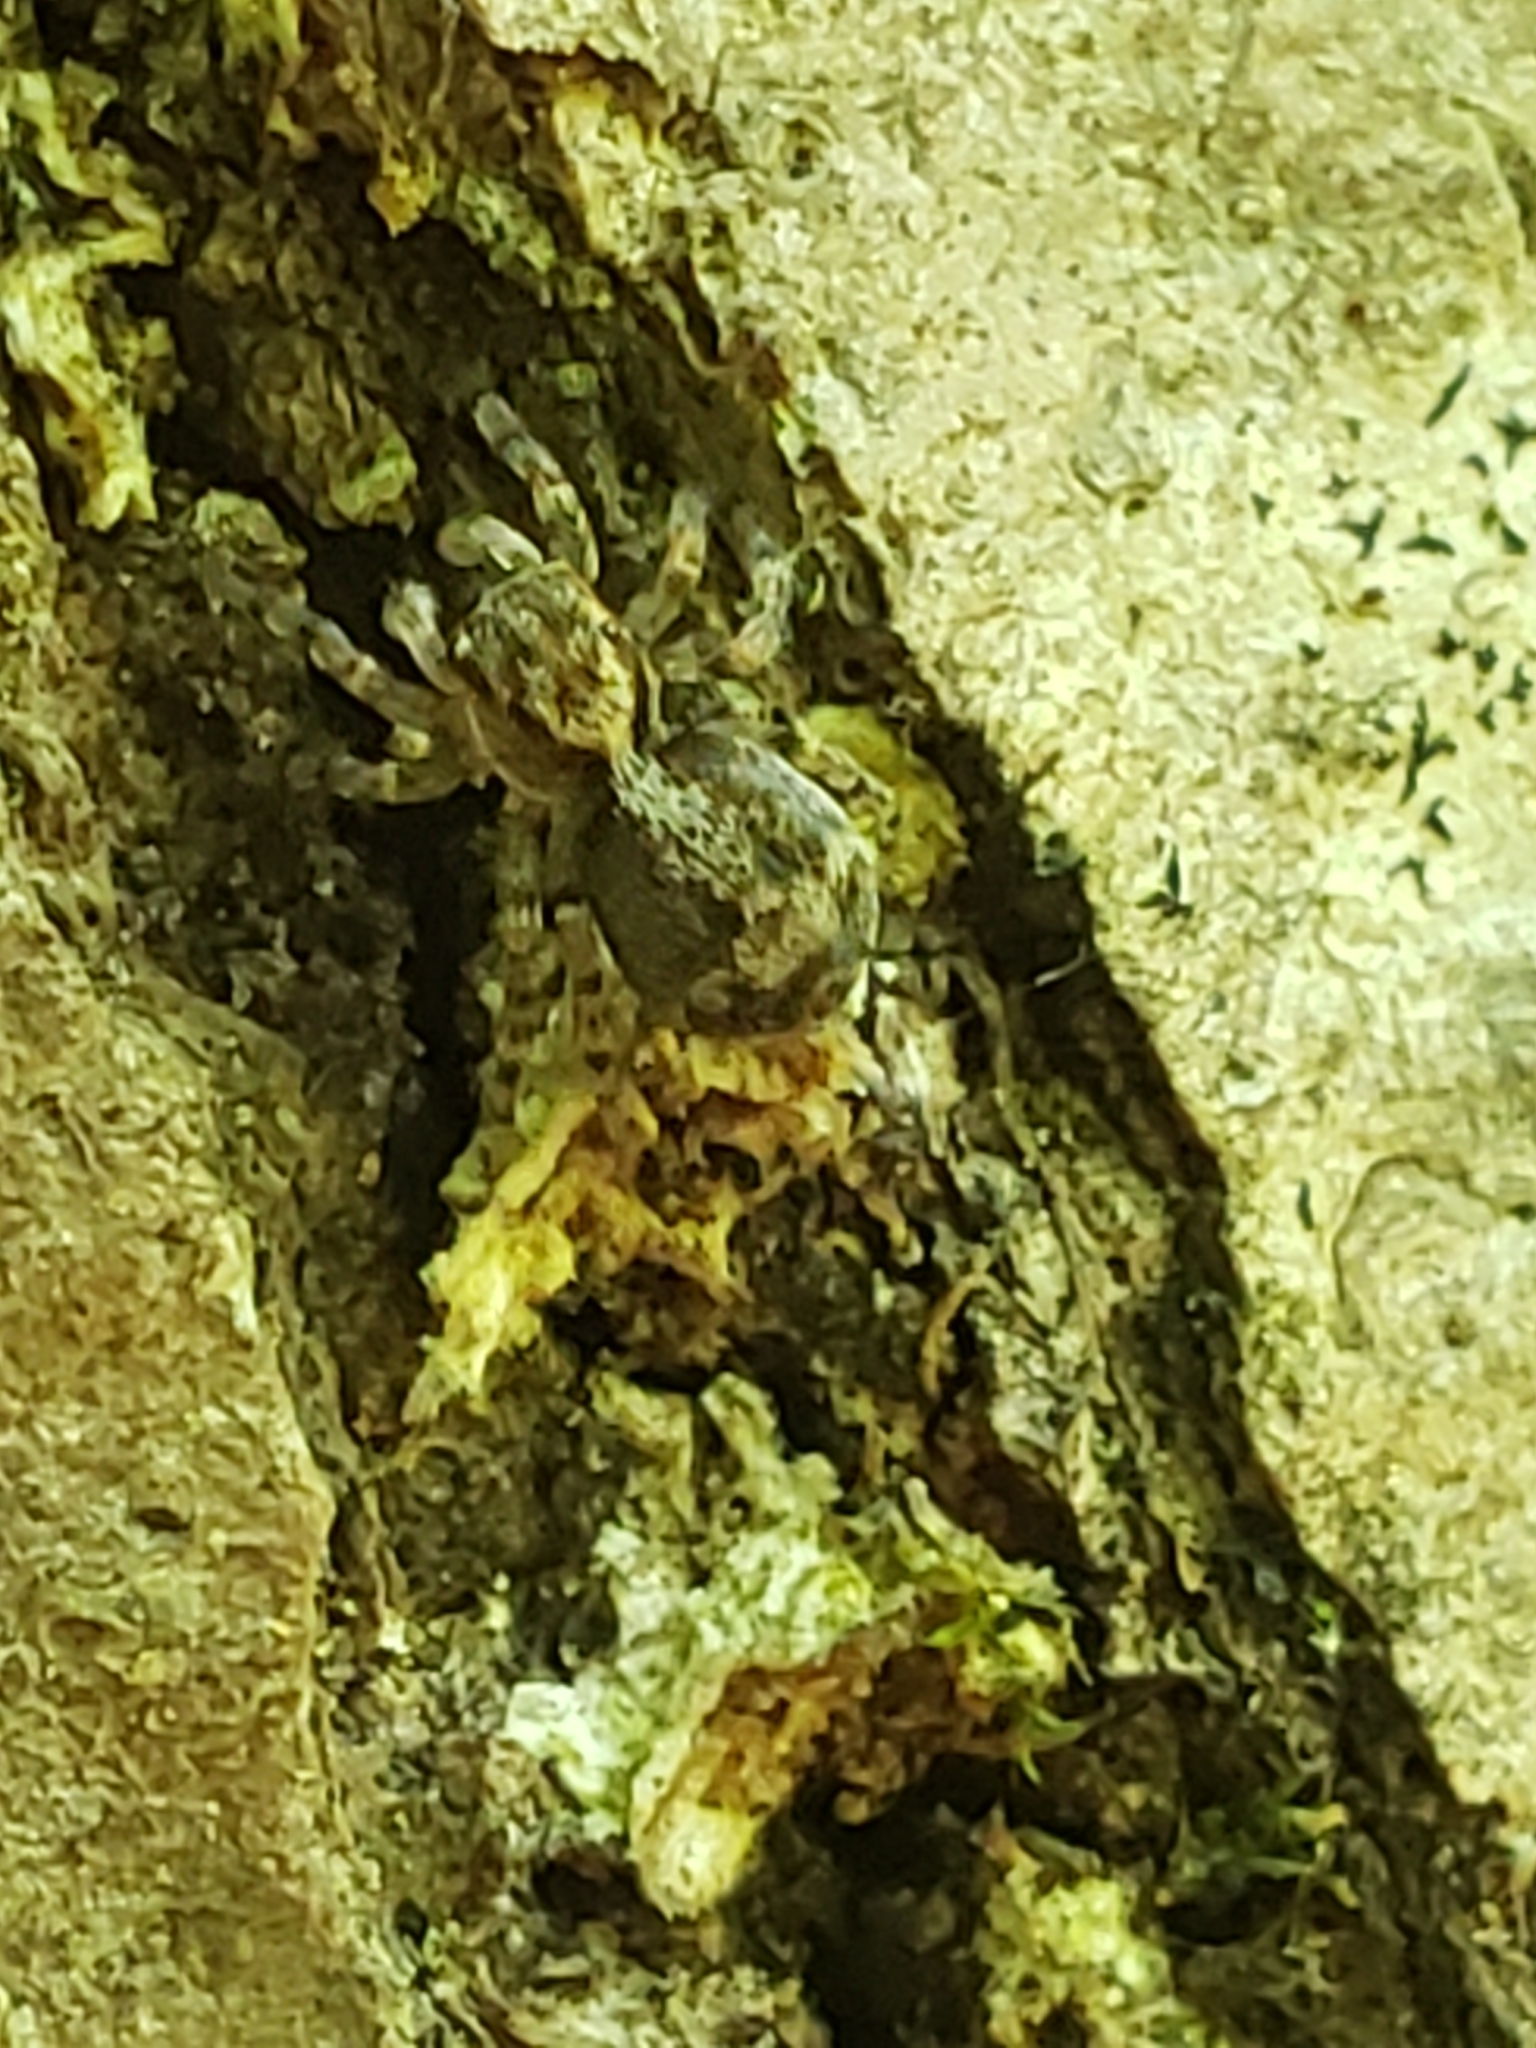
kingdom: Animalia
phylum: Arthropoda
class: Arachnida
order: Araneae
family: Salticidae
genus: Naphrys
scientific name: Naphrys pulex
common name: Flea jumping spider
